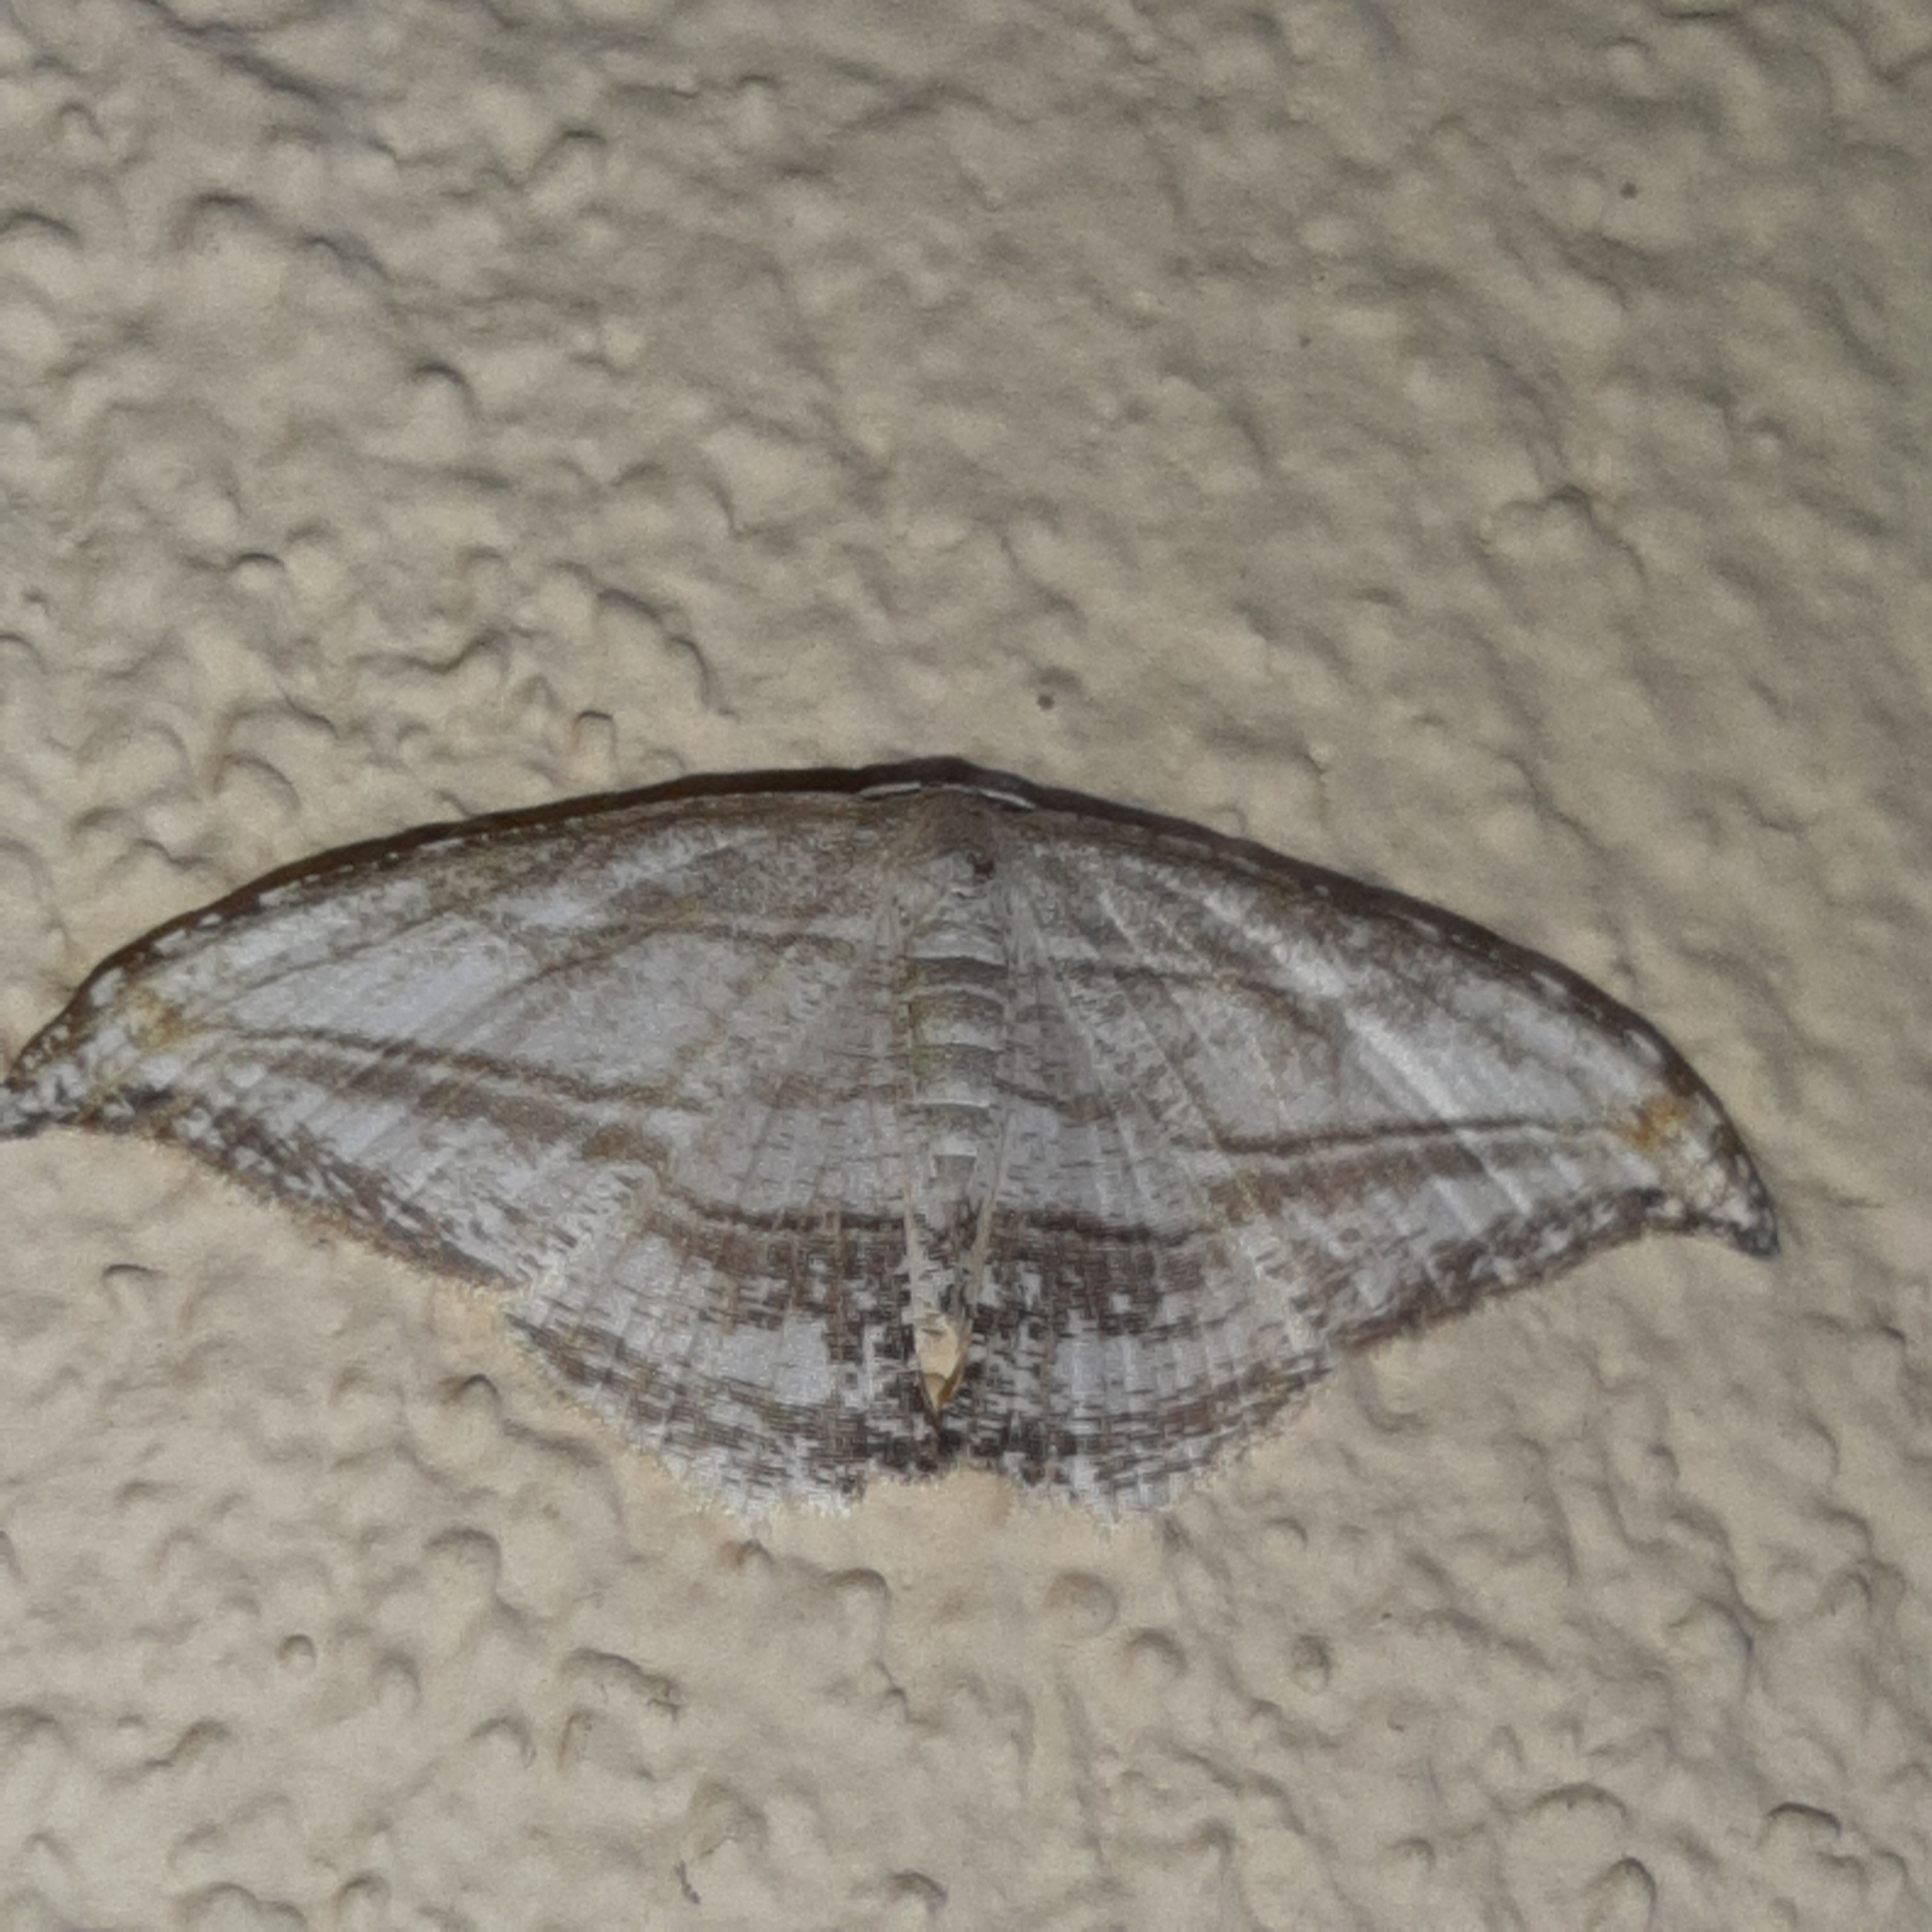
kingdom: Animalia
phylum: Arthropoda
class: Insecta
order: Lepidoptera
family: Uraniidae
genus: Morphomima
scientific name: Morphomima fulvitacta
